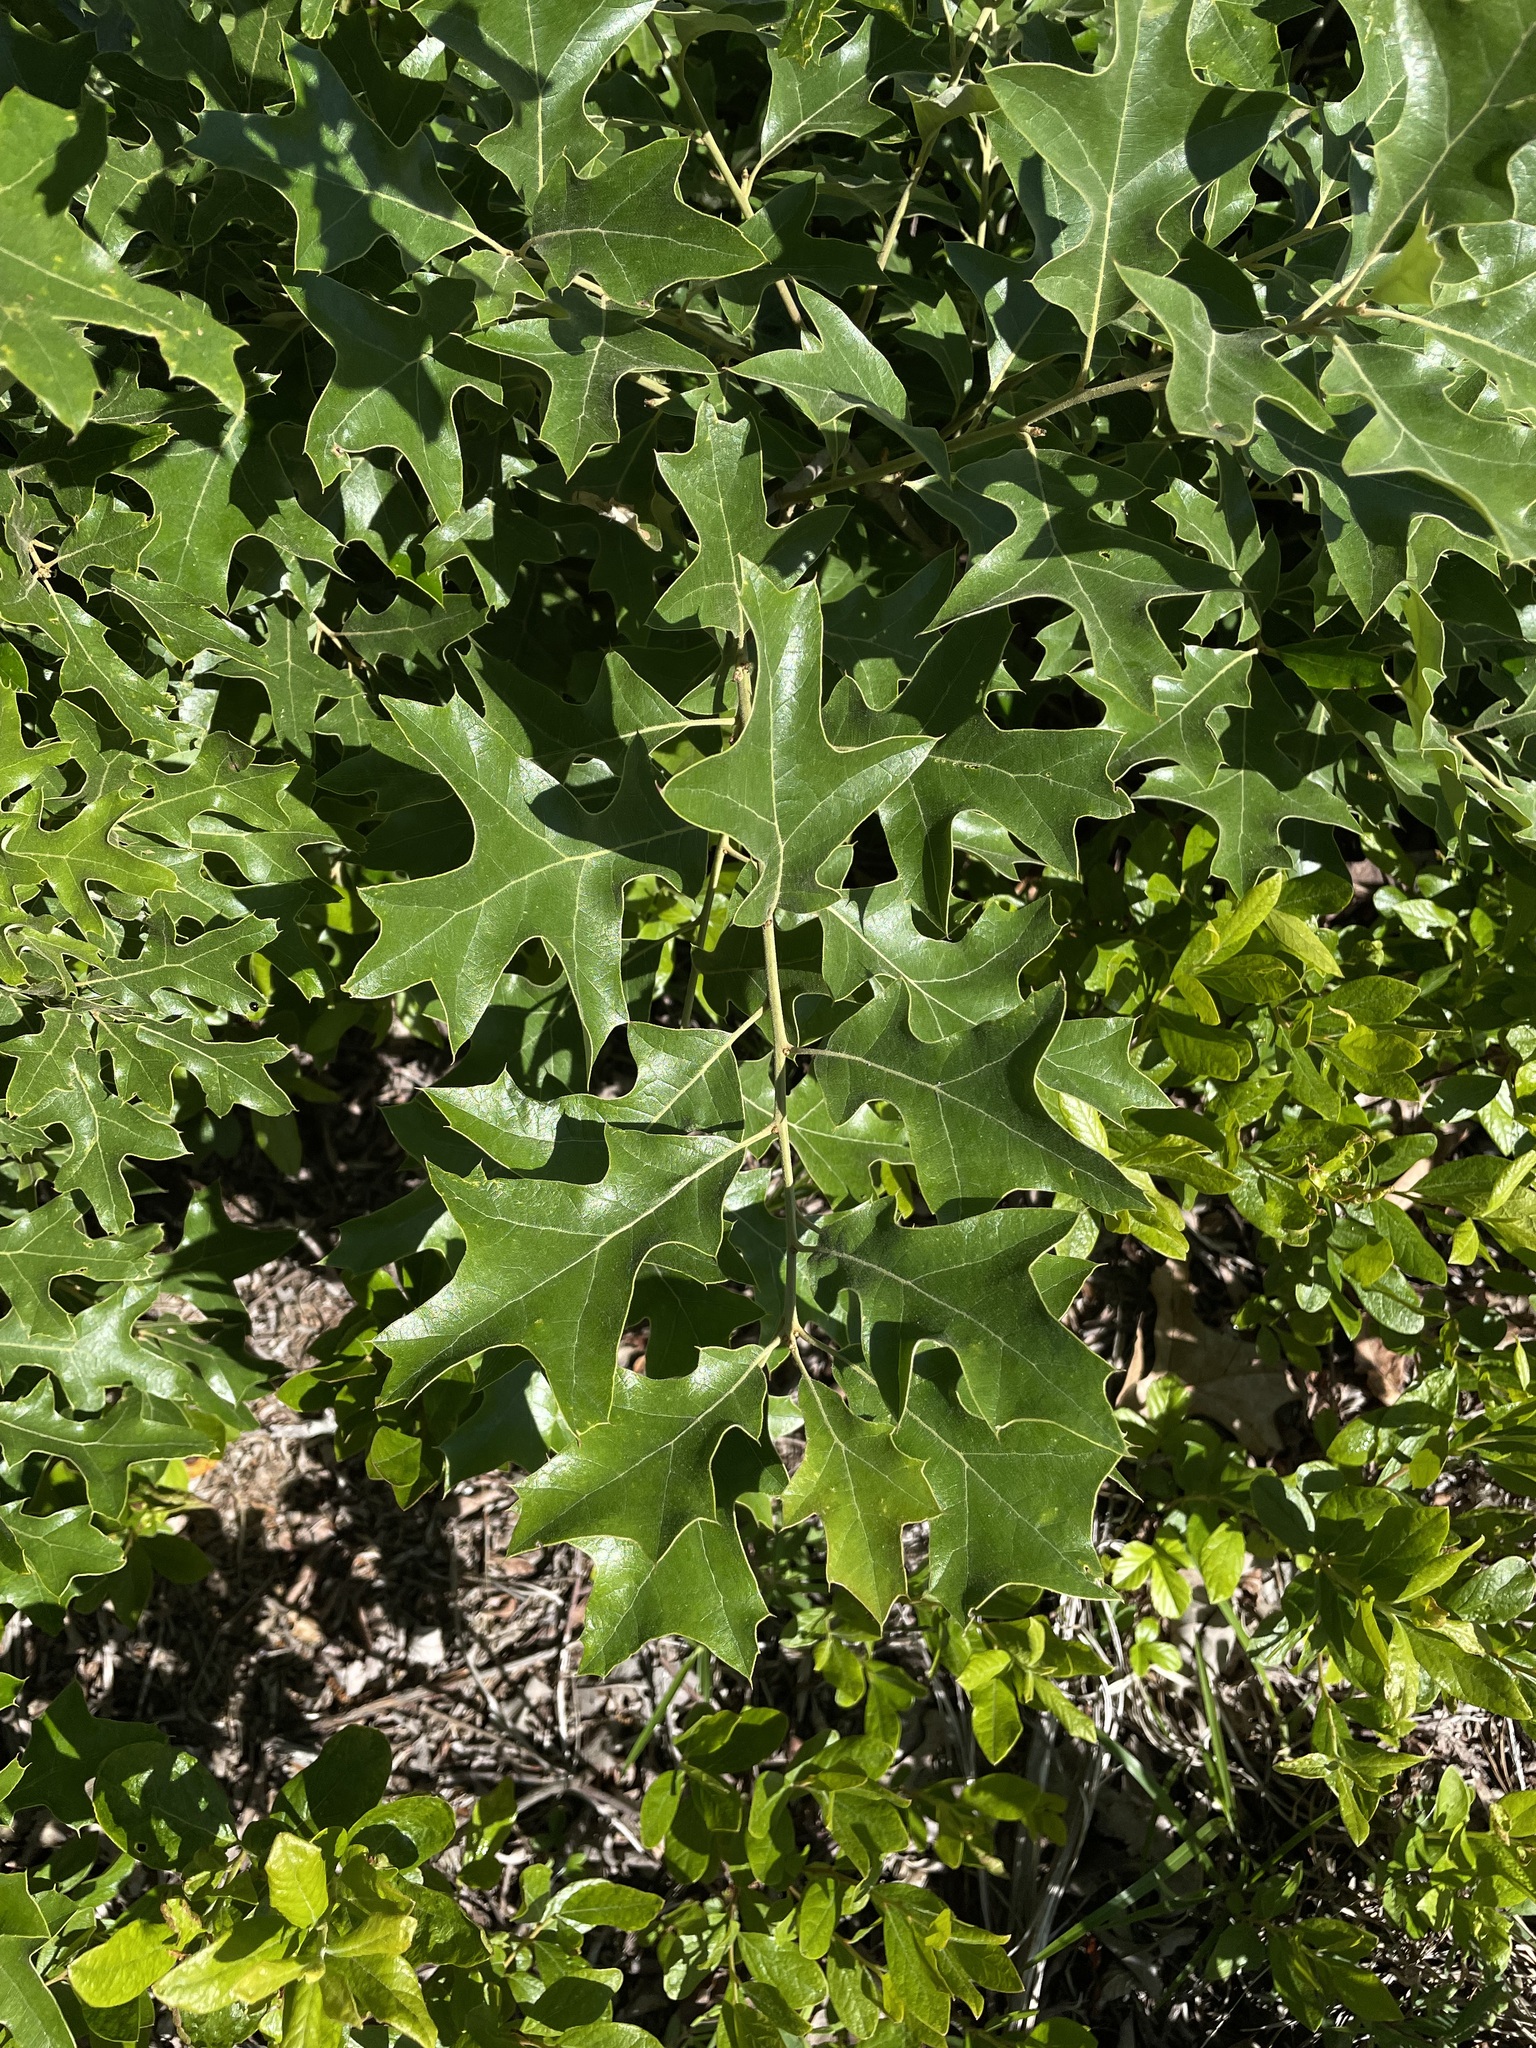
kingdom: Plantae
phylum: Tracheophyta
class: Magnoliopsida
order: Fagales
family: Fagaceae
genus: Quercus
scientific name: Quercus ilicifolia
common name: Bear oak
